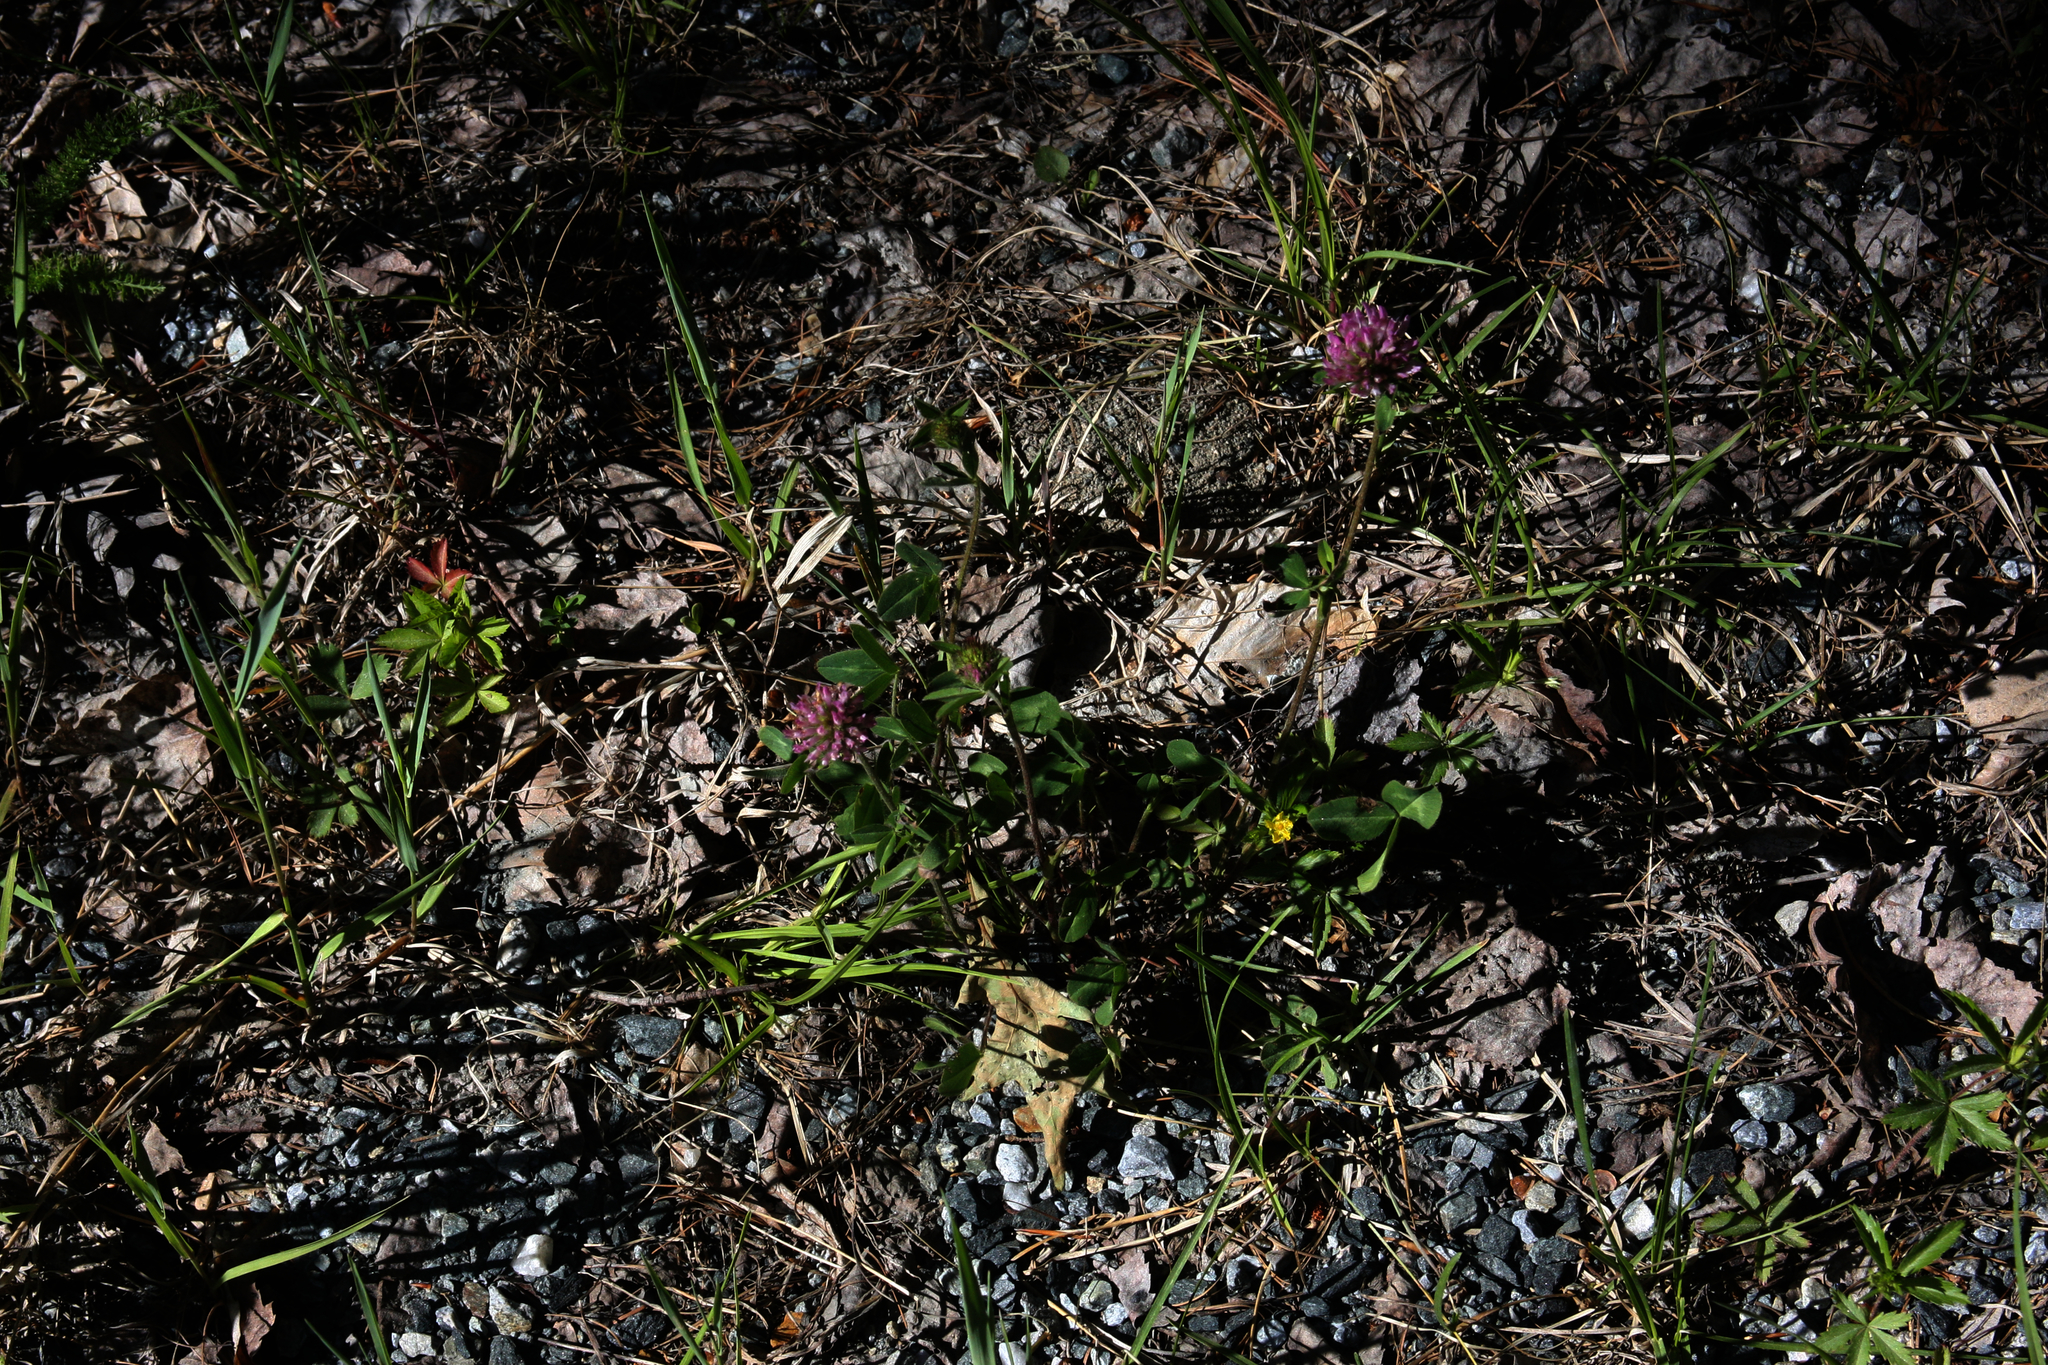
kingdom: Plantae
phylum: Tracheophyta
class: Magnoliopsida
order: Fabales
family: Fabaceae
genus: Trifolium
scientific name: Trifolium pratense
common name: Red clover
